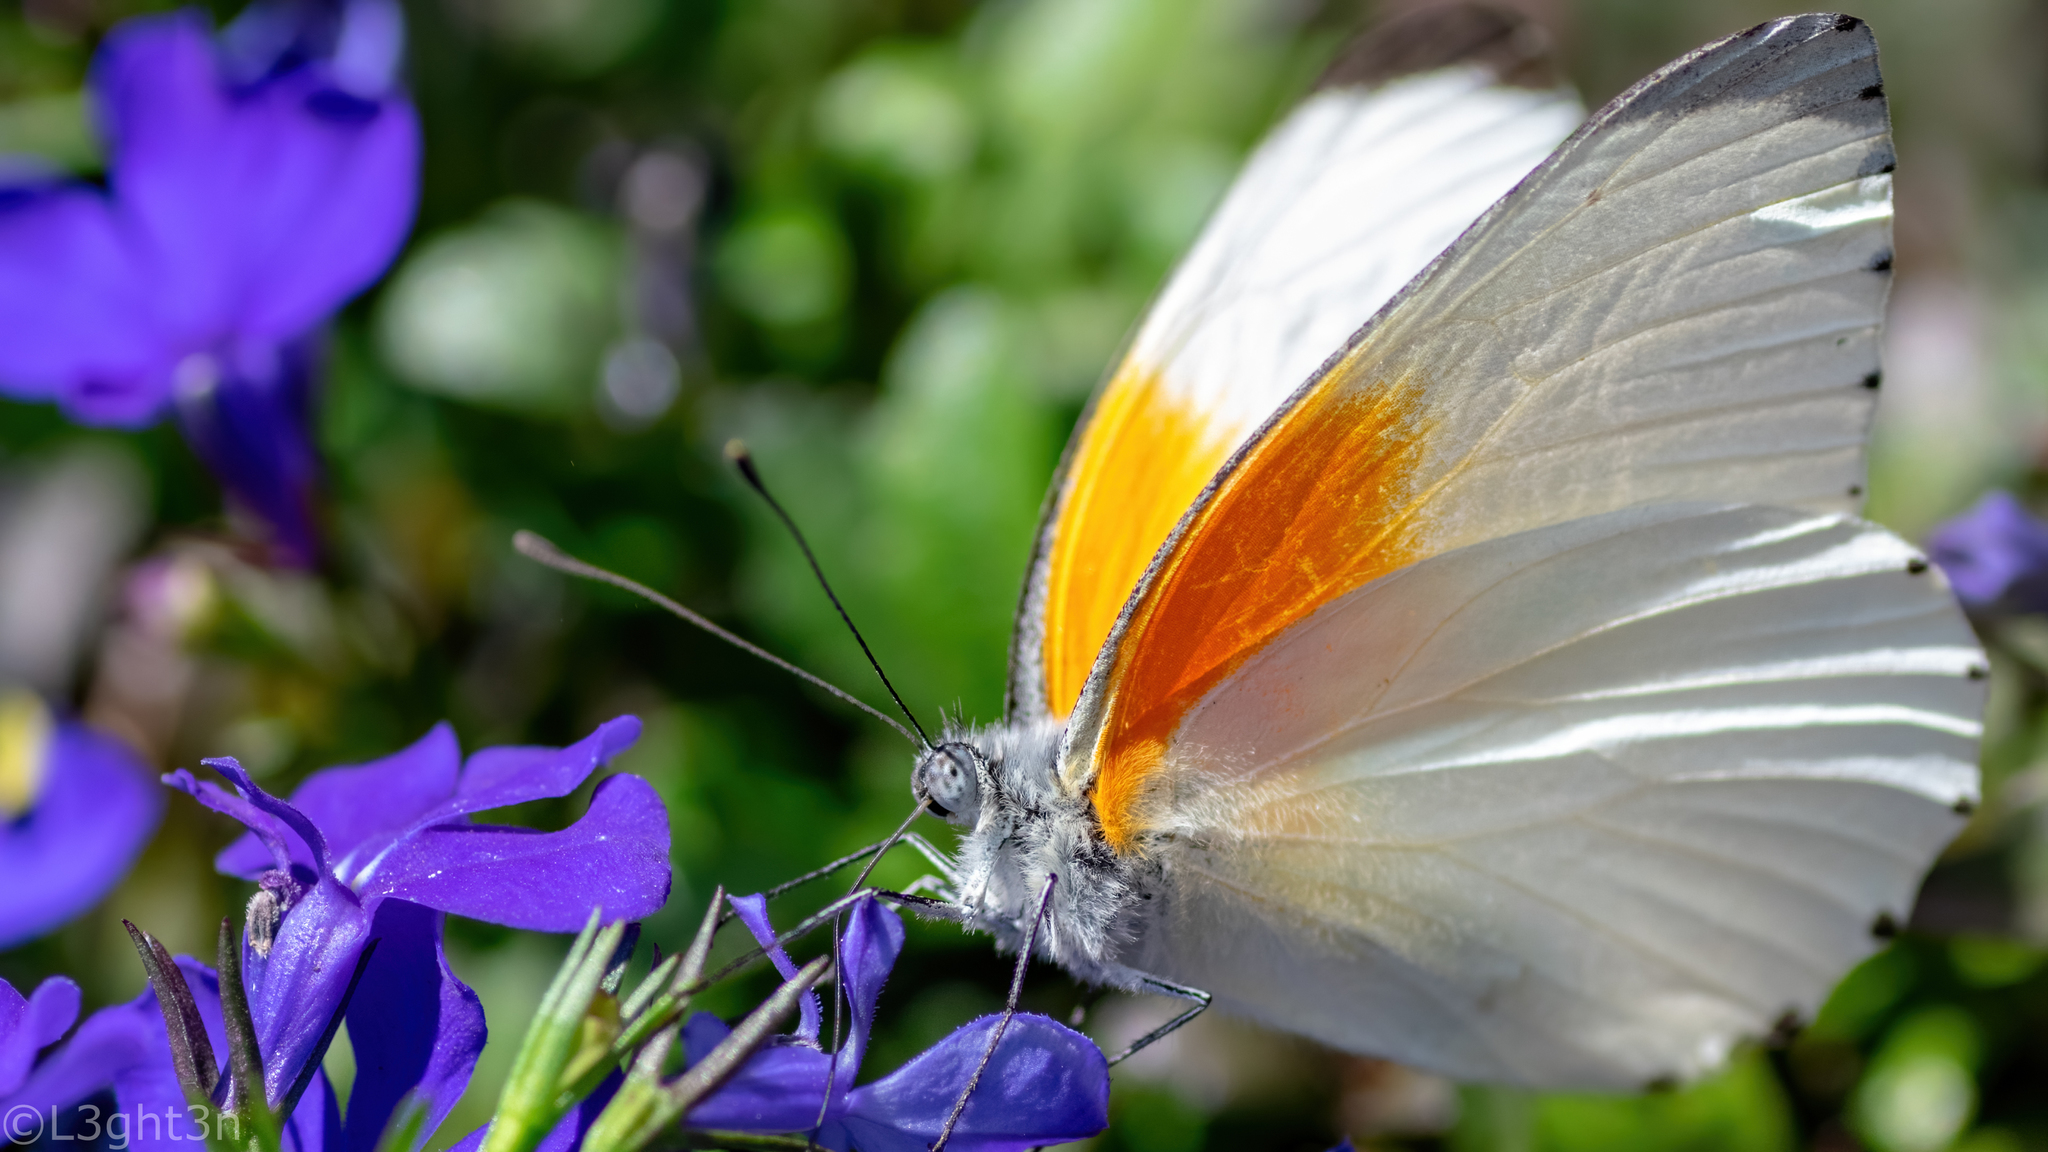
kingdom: Animalia
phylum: Arthropoda
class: Insecta
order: Lepidoptera
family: Pieridae
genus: Mylothris
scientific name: Mylothris rueppellii
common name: Twin dotted border
